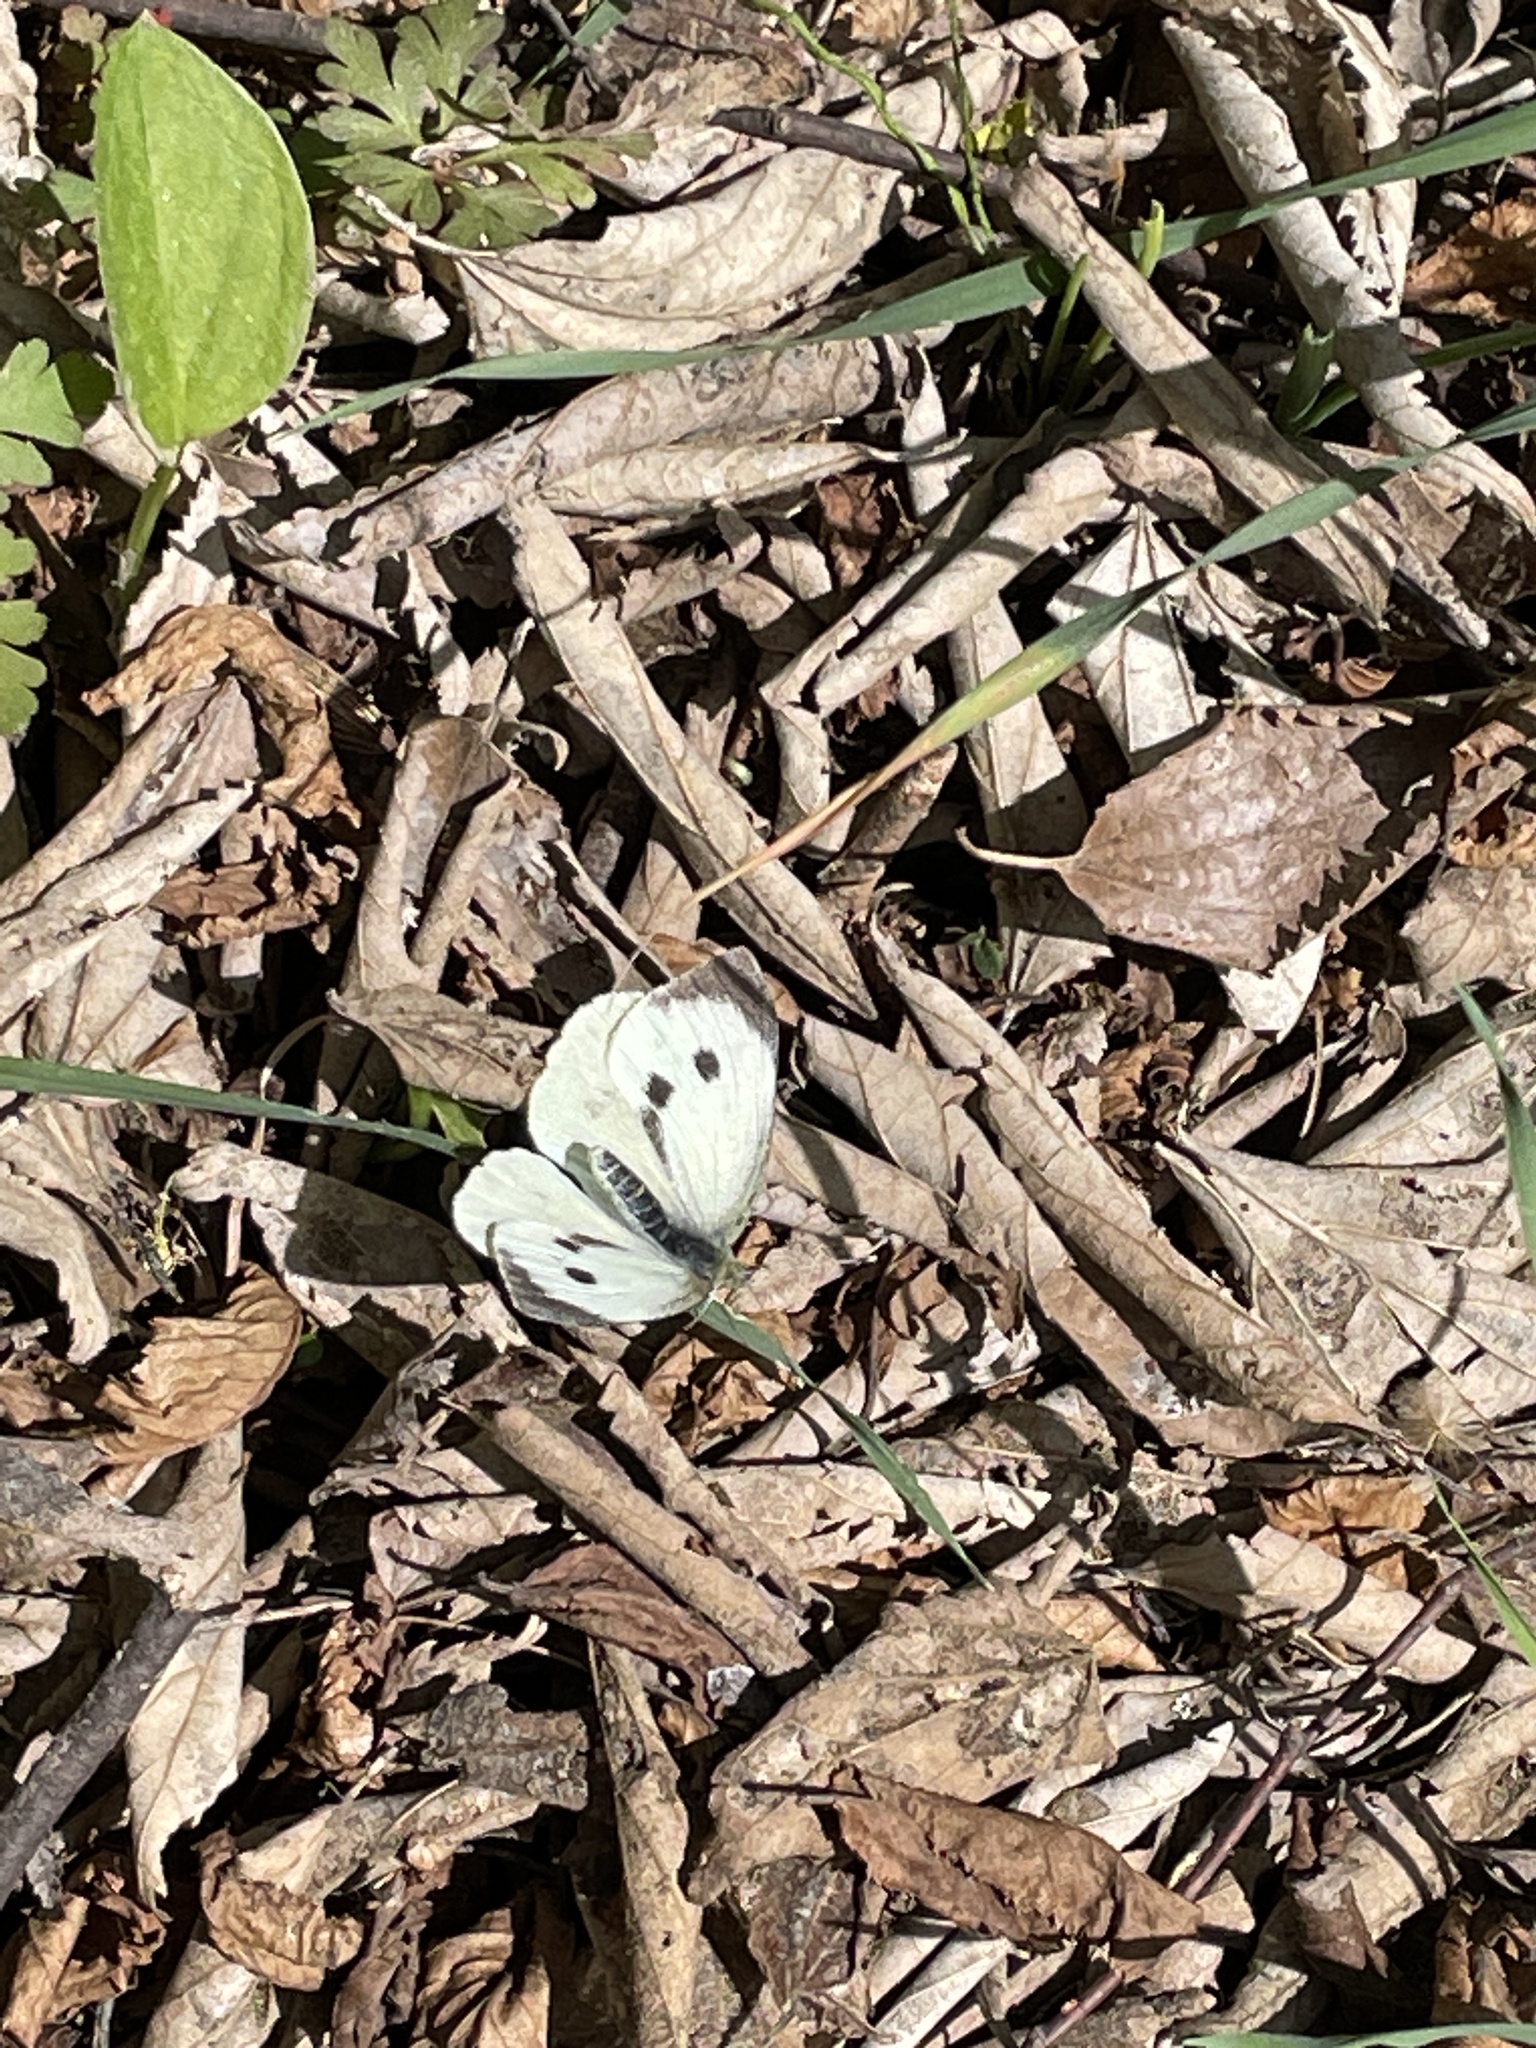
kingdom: Animalia
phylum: Arthropoda
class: Insecta
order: Lepidoptera
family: Pieridae
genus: Pieris
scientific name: Pieris brassicae
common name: Large white
